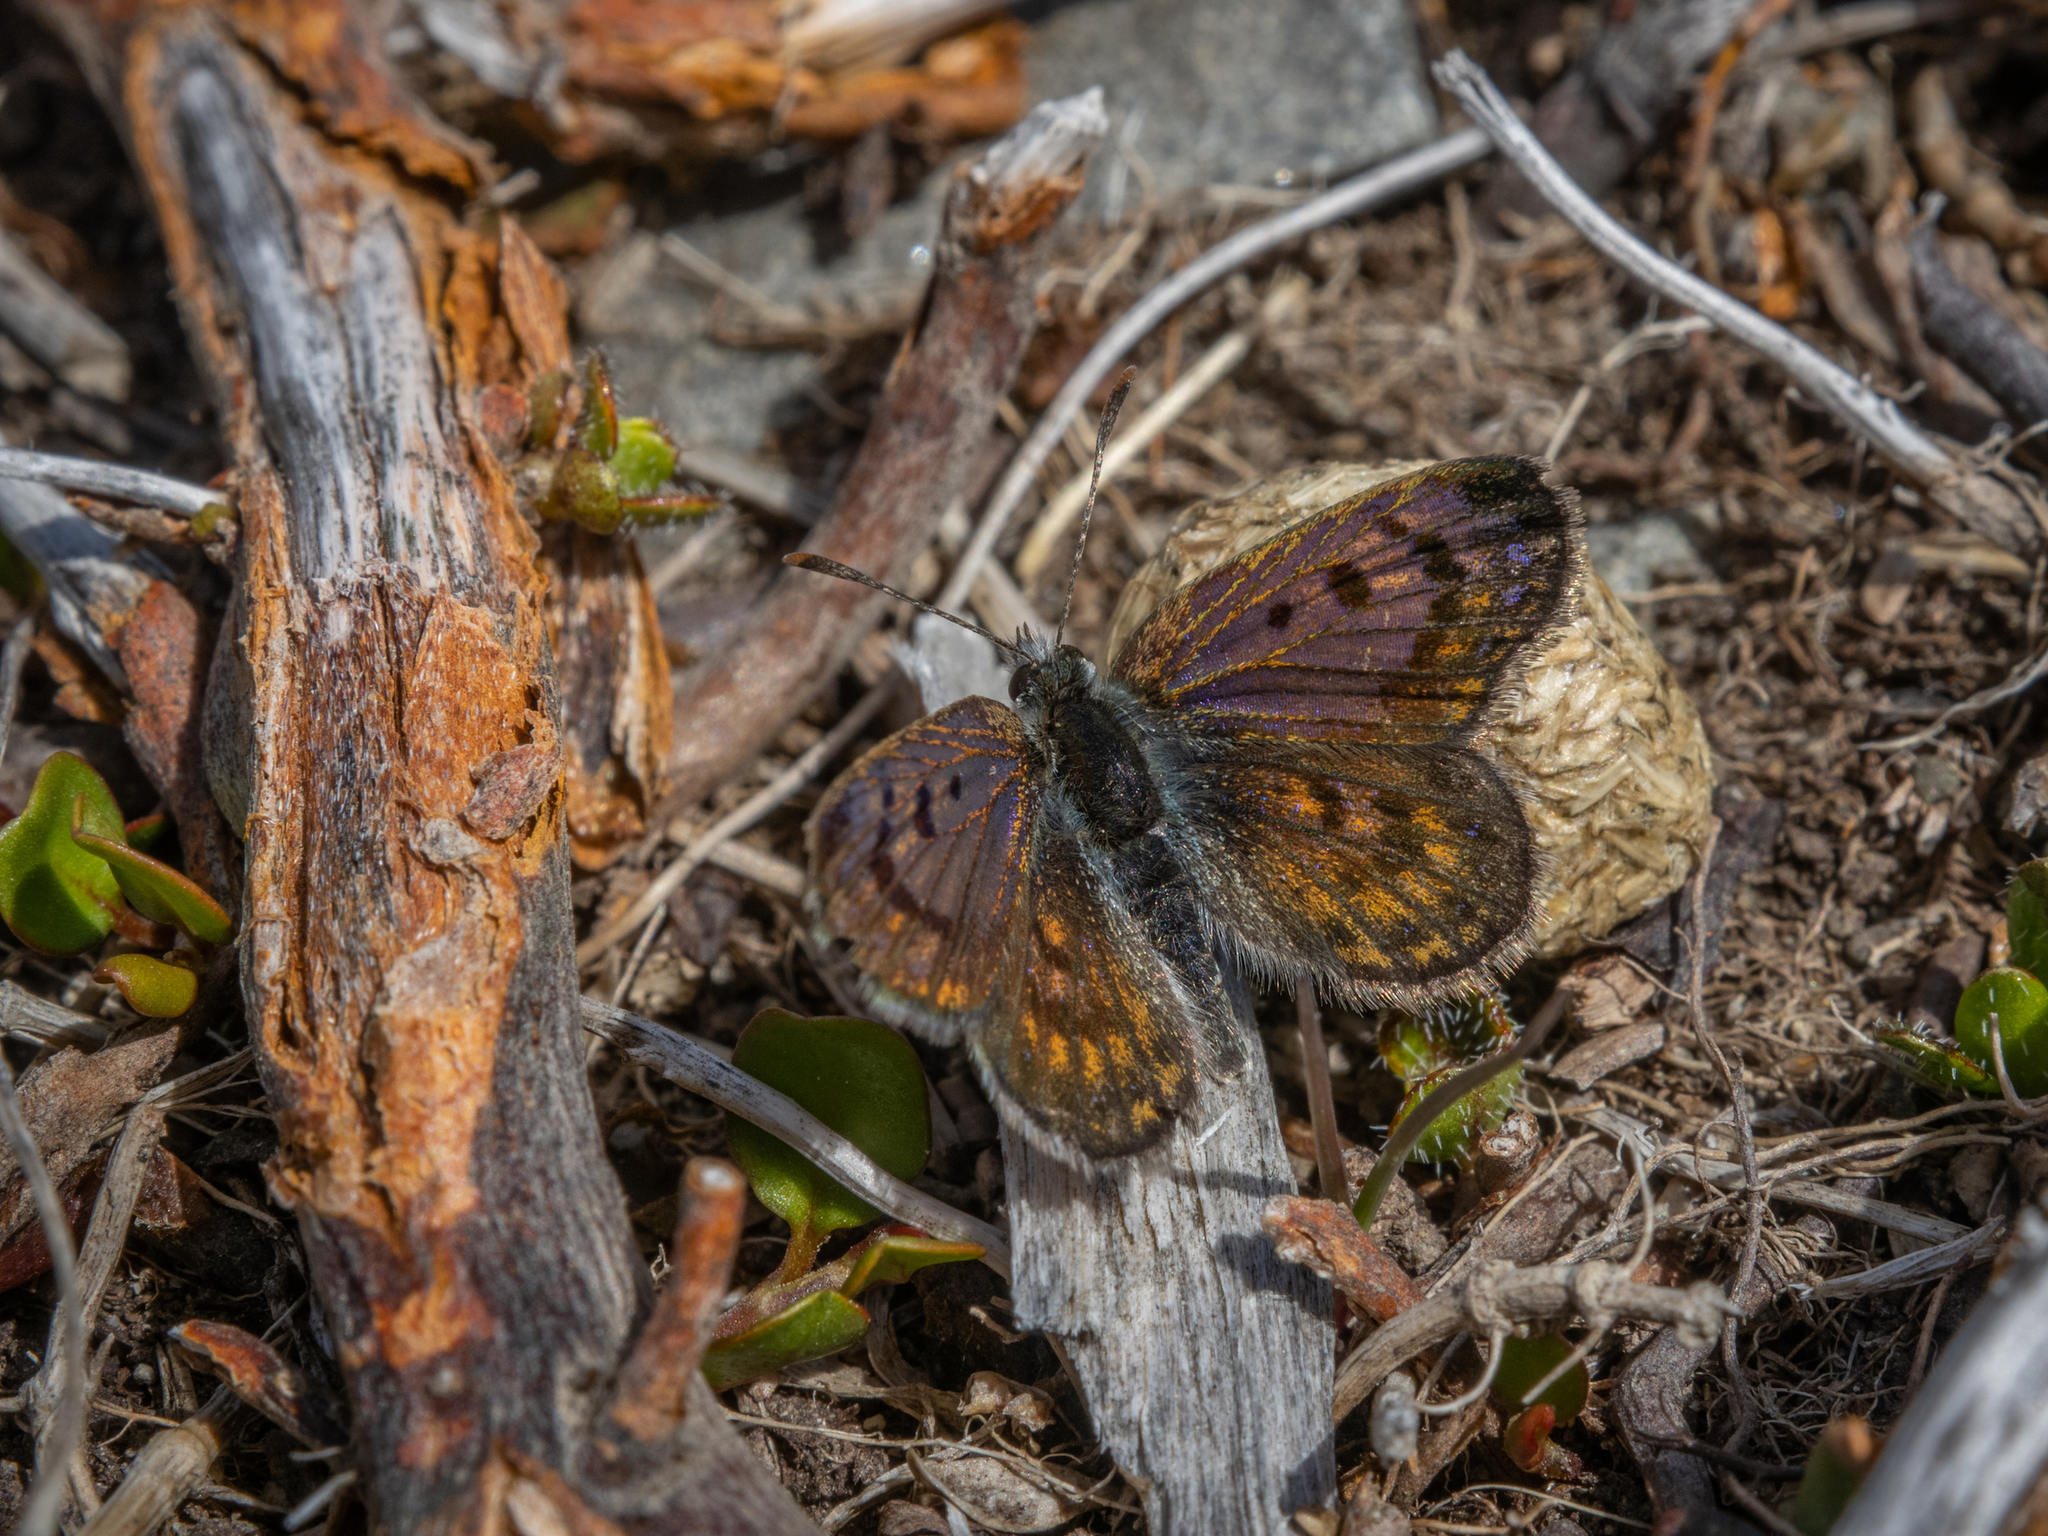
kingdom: Animalia
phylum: Arthropoda
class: Insecta
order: Lepidoptera
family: Lycaenidae
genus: Lycaena
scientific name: Lycaena tama
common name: Canterbury alpine boulder copper
